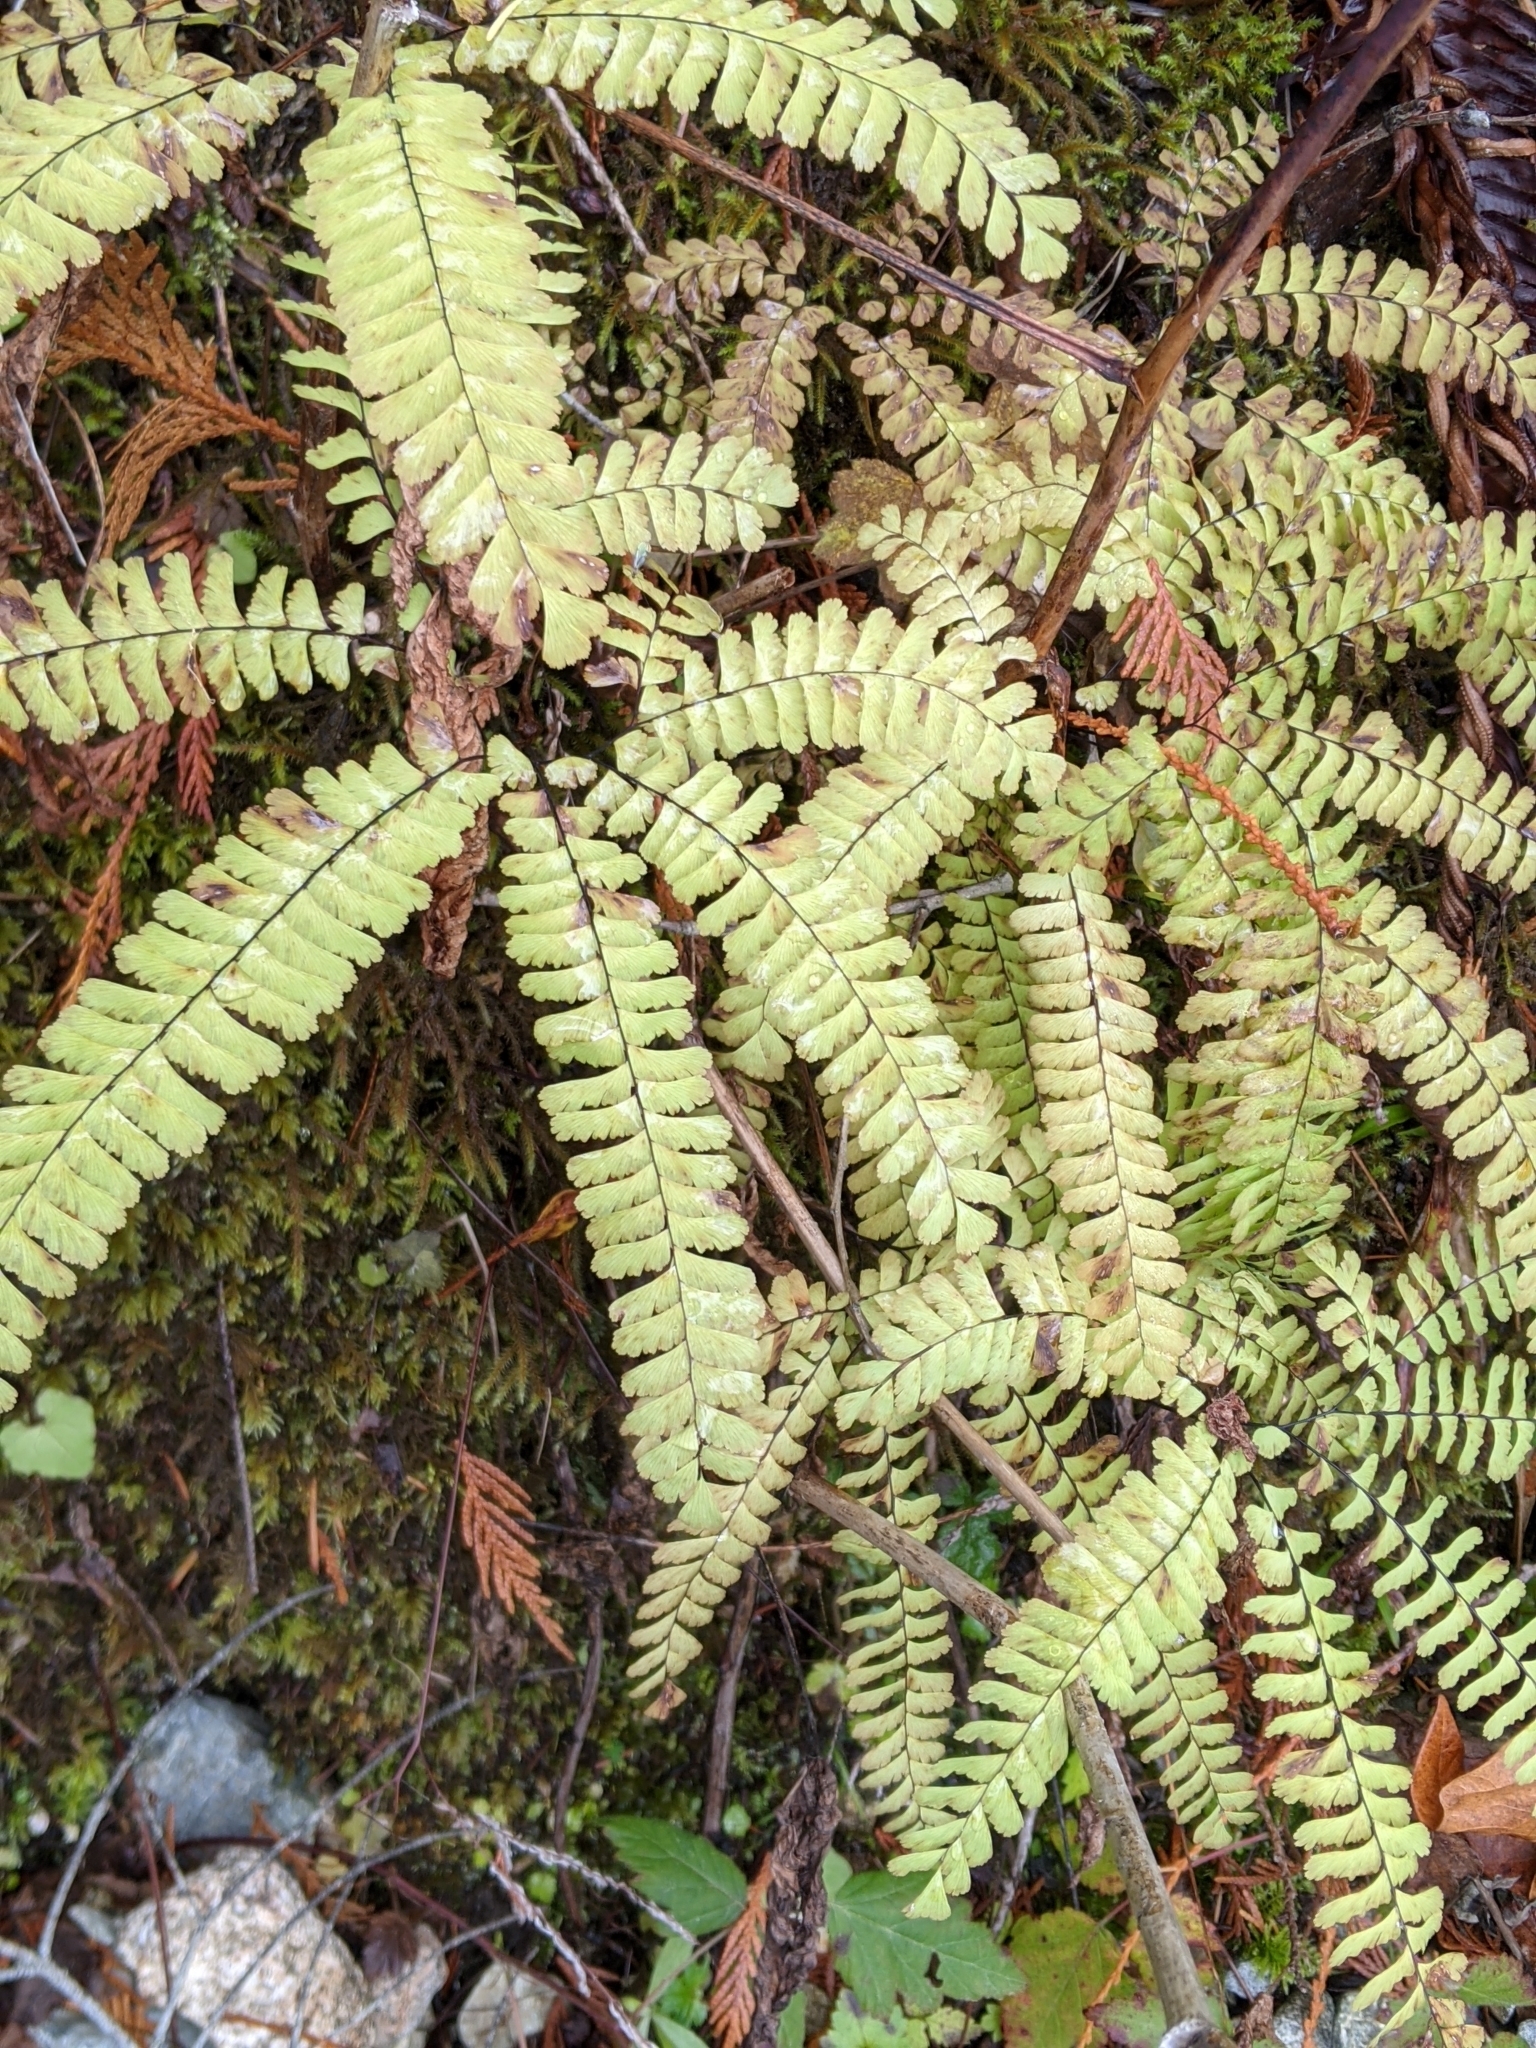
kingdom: Plantae
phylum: Tracheophyta
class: Polypodiopsida
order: Polypodiales
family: Pteridaceae
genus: Adiantum
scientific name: Adiantum aleuticum
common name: Aleutian maidenhair fern
